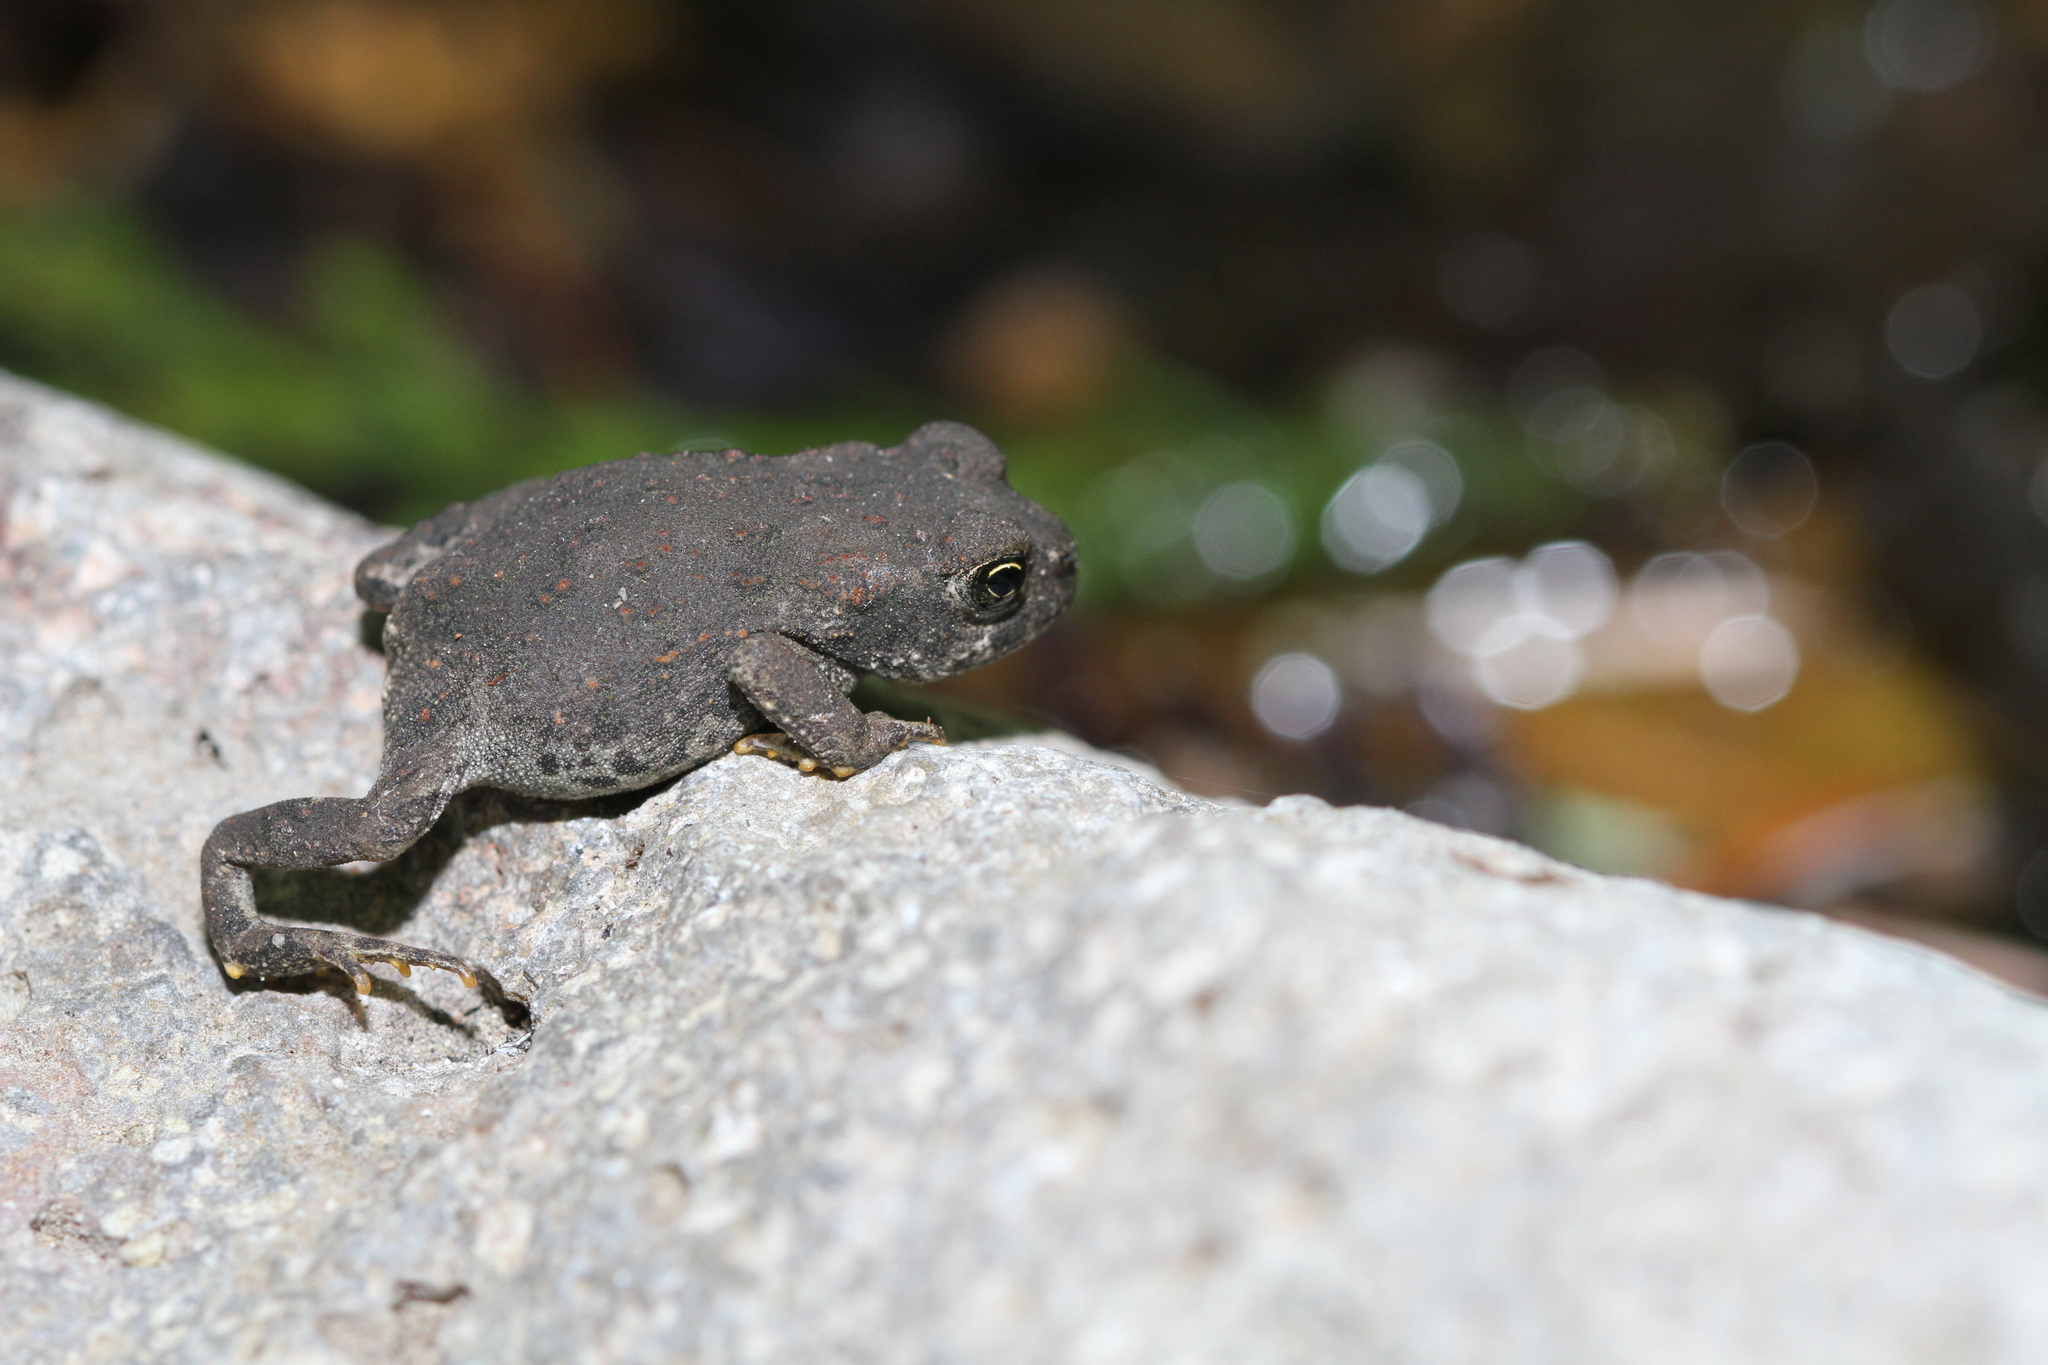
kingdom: Animalia
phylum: Chordata
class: Amphibia
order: Anura
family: Bufonidae
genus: Anaxyrus
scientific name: Anaxyrus boreas
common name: Western toad
